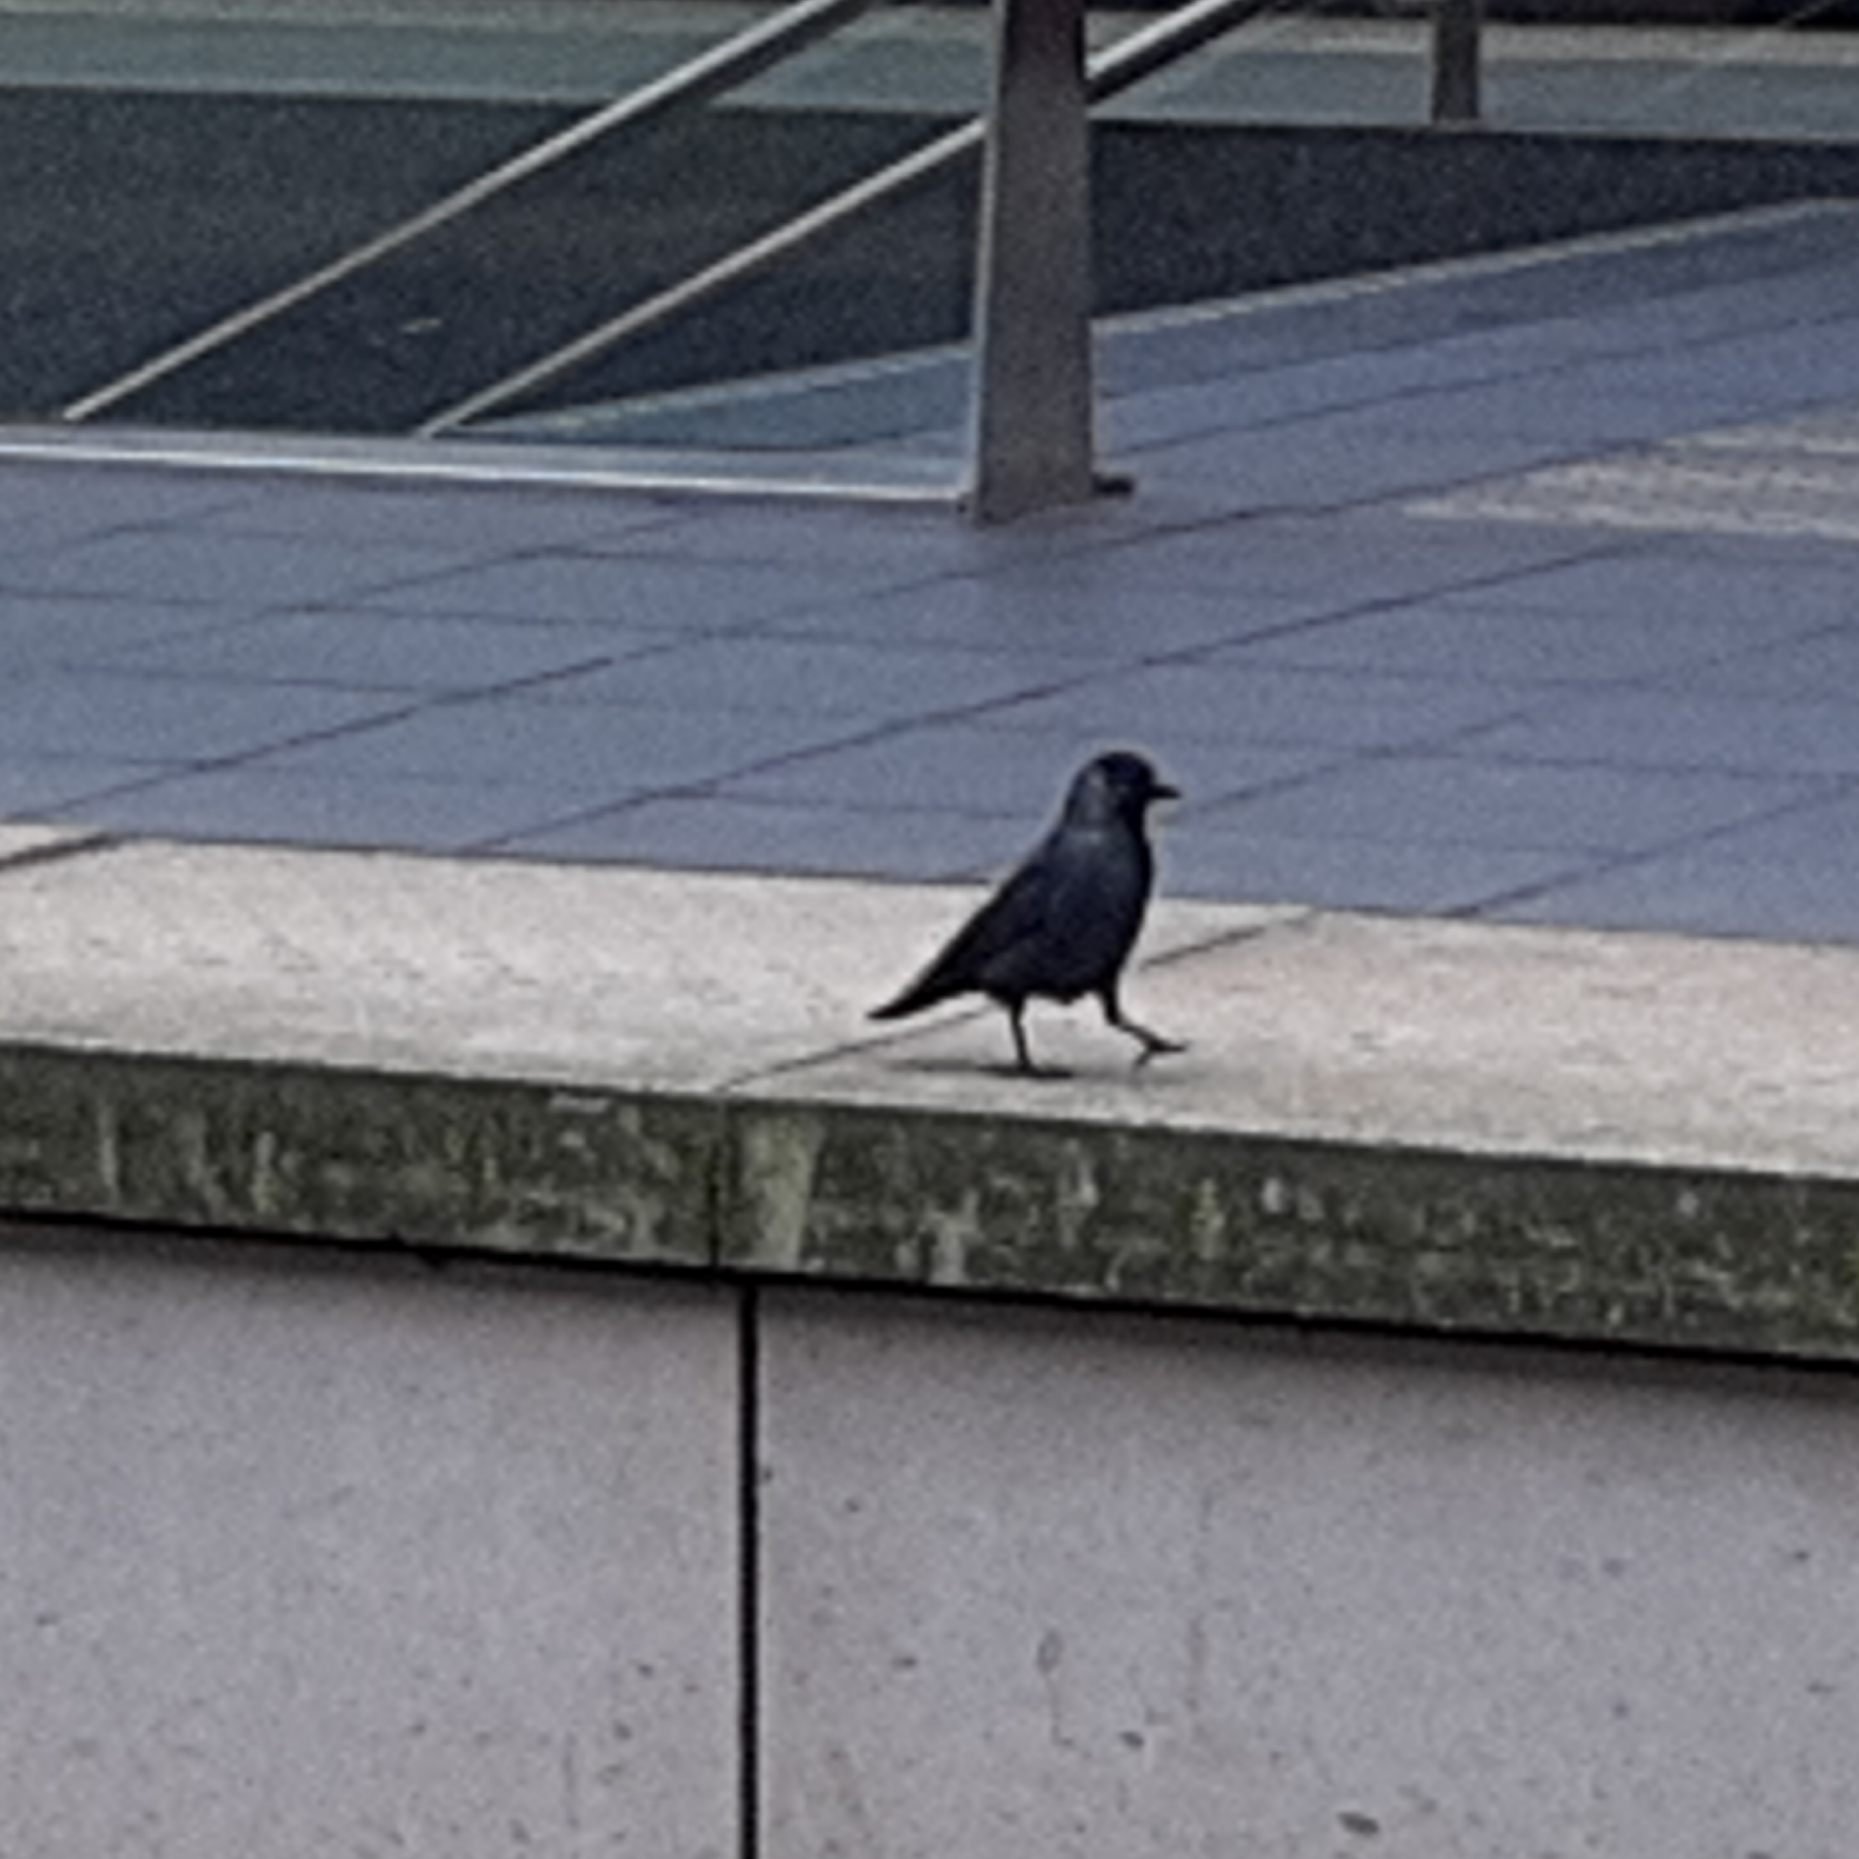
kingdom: Animalia
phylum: Chordata
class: Aves
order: Passeriformes
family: Corvidae
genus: Coloeus
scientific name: Coloeus monedula
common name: Western jackdaw
